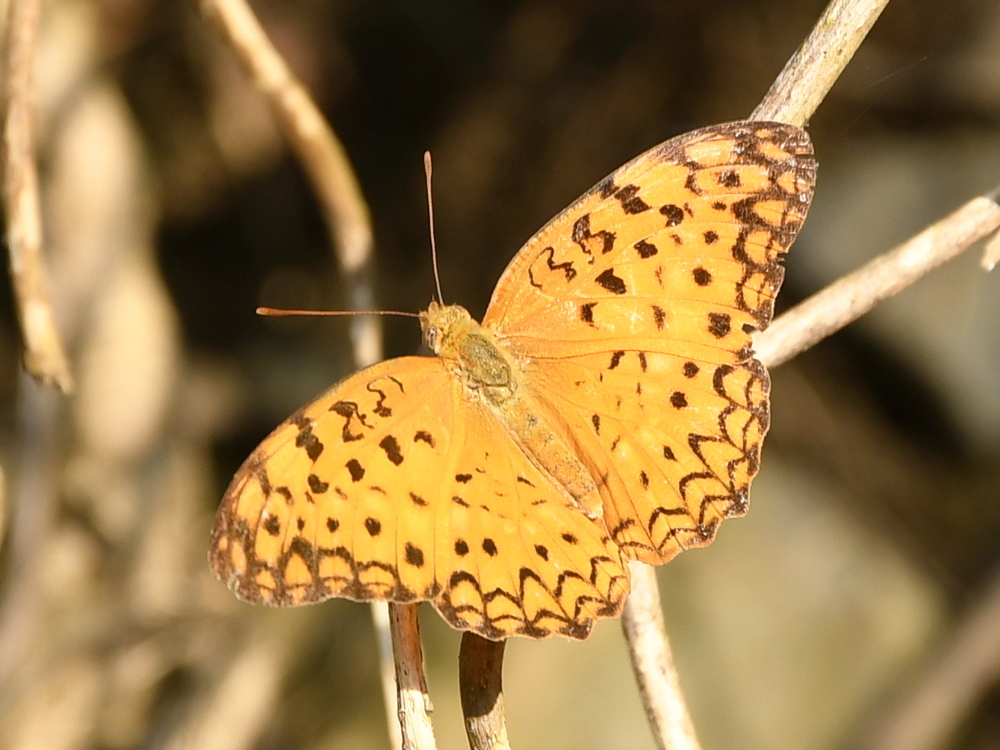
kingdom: Animalia
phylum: Arthropoda
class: Insecta
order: Lepidoptera
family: Nymphalidae
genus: Phalanta
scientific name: Phalanta phalantha
